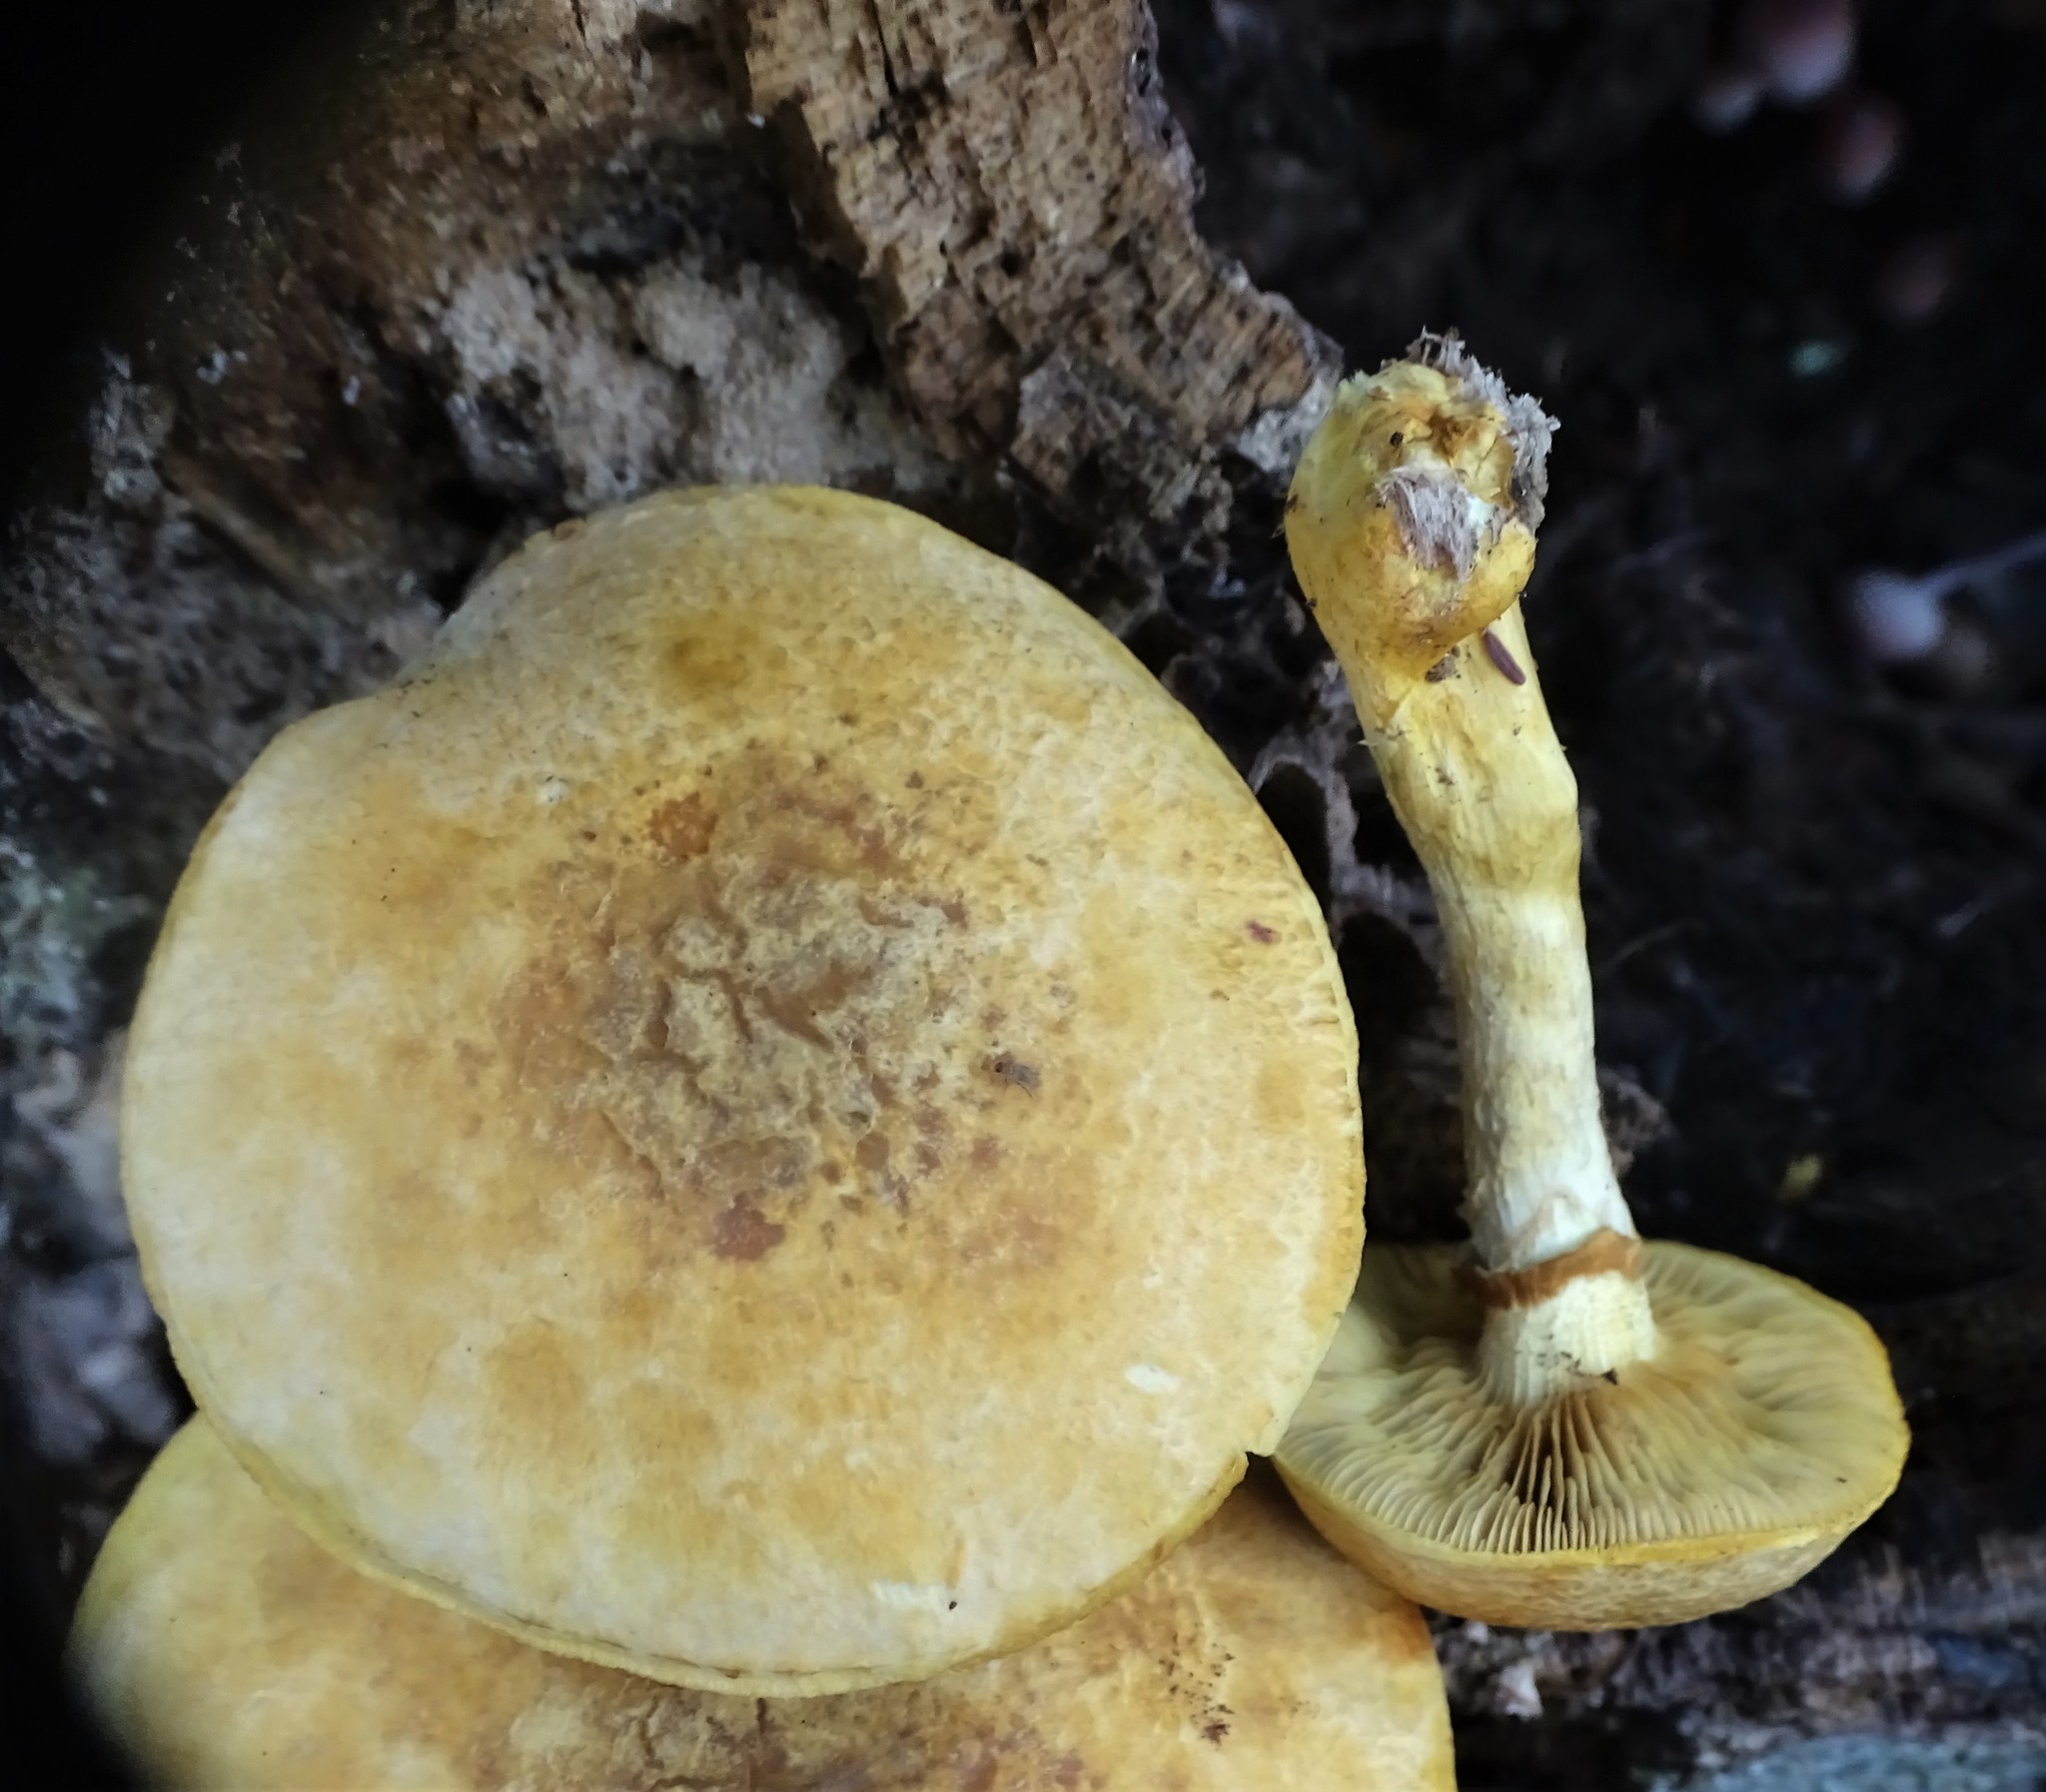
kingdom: Fungi
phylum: Basidiomycota
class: Agaricomycetes
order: Agaricales
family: Hymenogastraceae
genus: Gymnopilus
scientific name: Gymnopilus luteus
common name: Yellow gymnopilus
